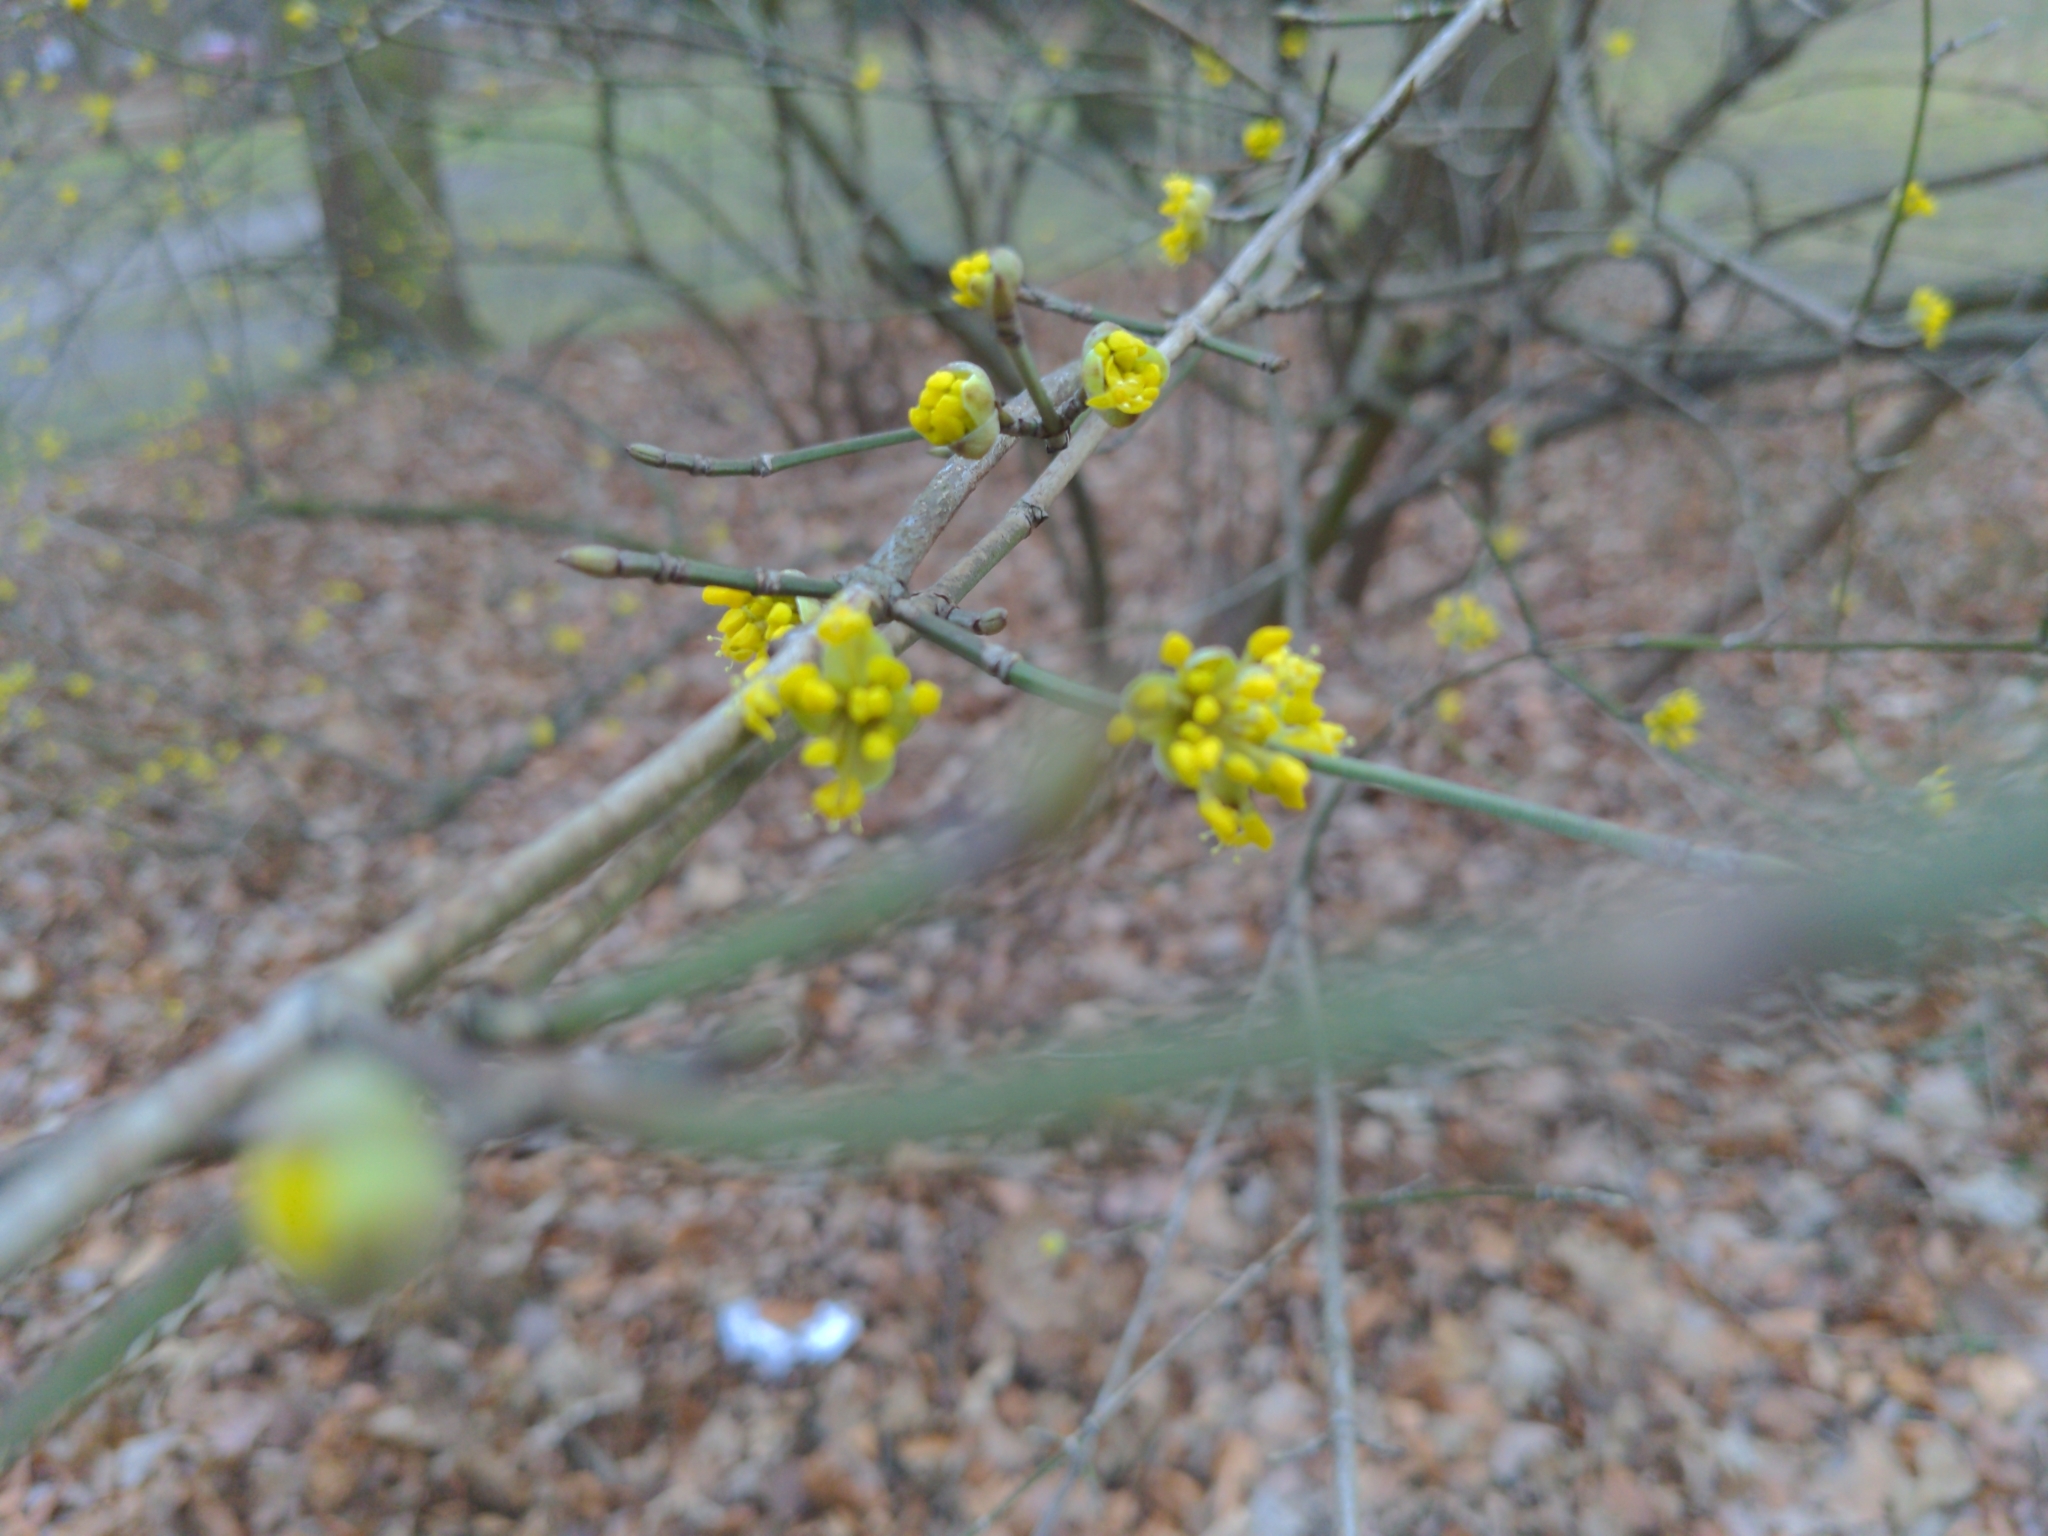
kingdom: Plantae
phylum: Tracheophyta
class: Magnoliopsida
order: Cornales
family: Cornaceae
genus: Cornus
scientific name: Cornus mas
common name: Cornelian-cherry
